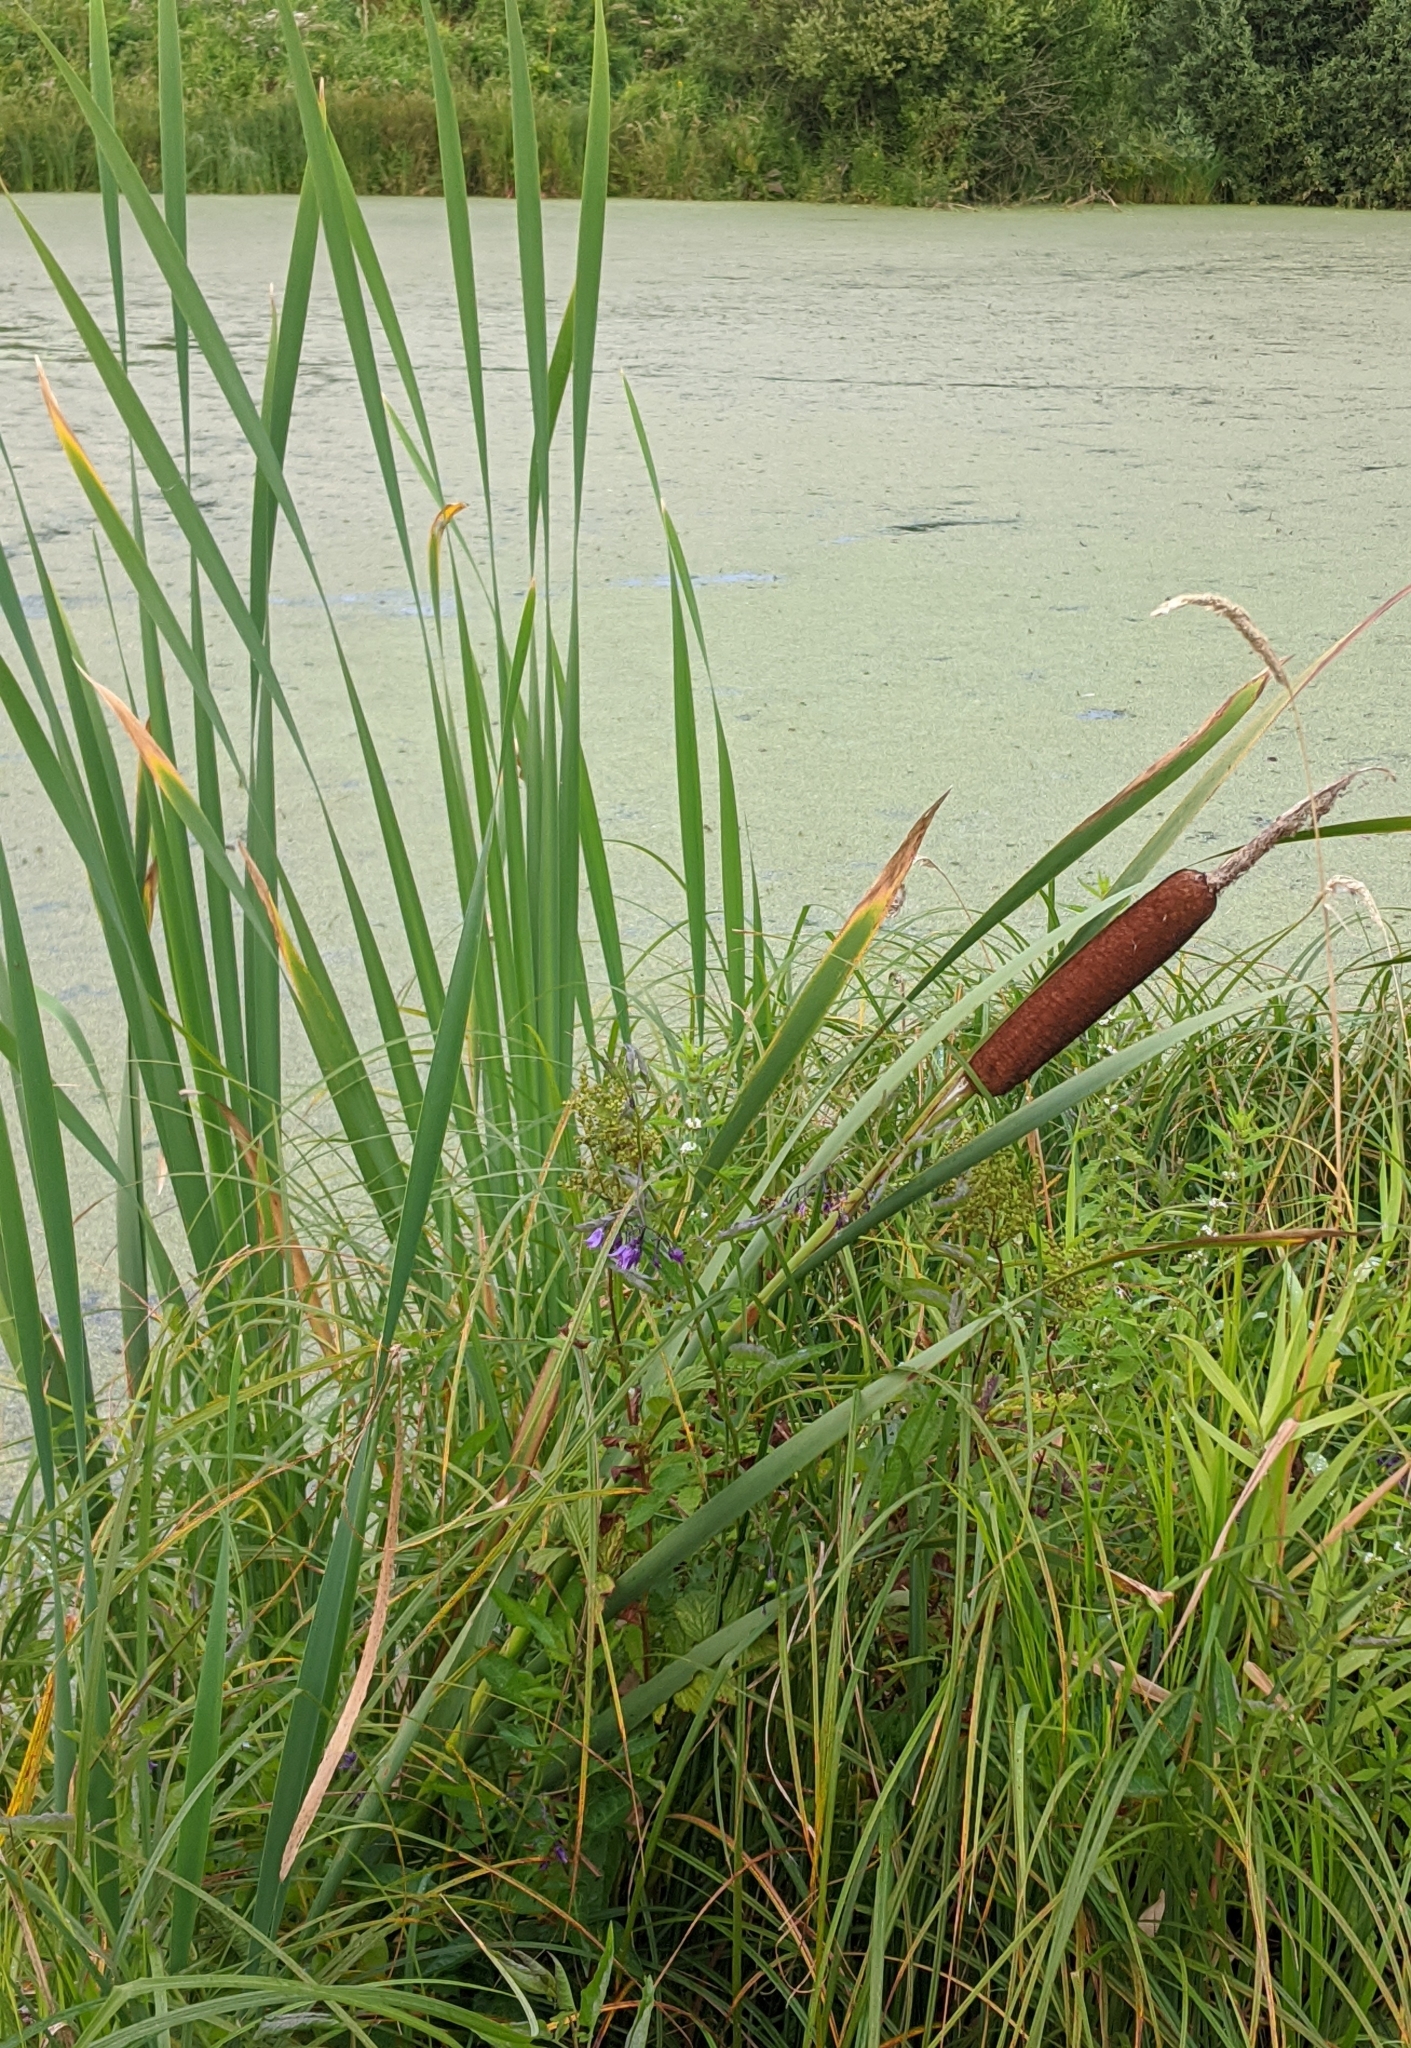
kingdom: Plantae
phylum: Tracheophyta
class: Liliopsida
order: Poales
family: Typhaceae
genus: Typha
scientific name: Typha latifolia
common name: Broadleaf cattail
